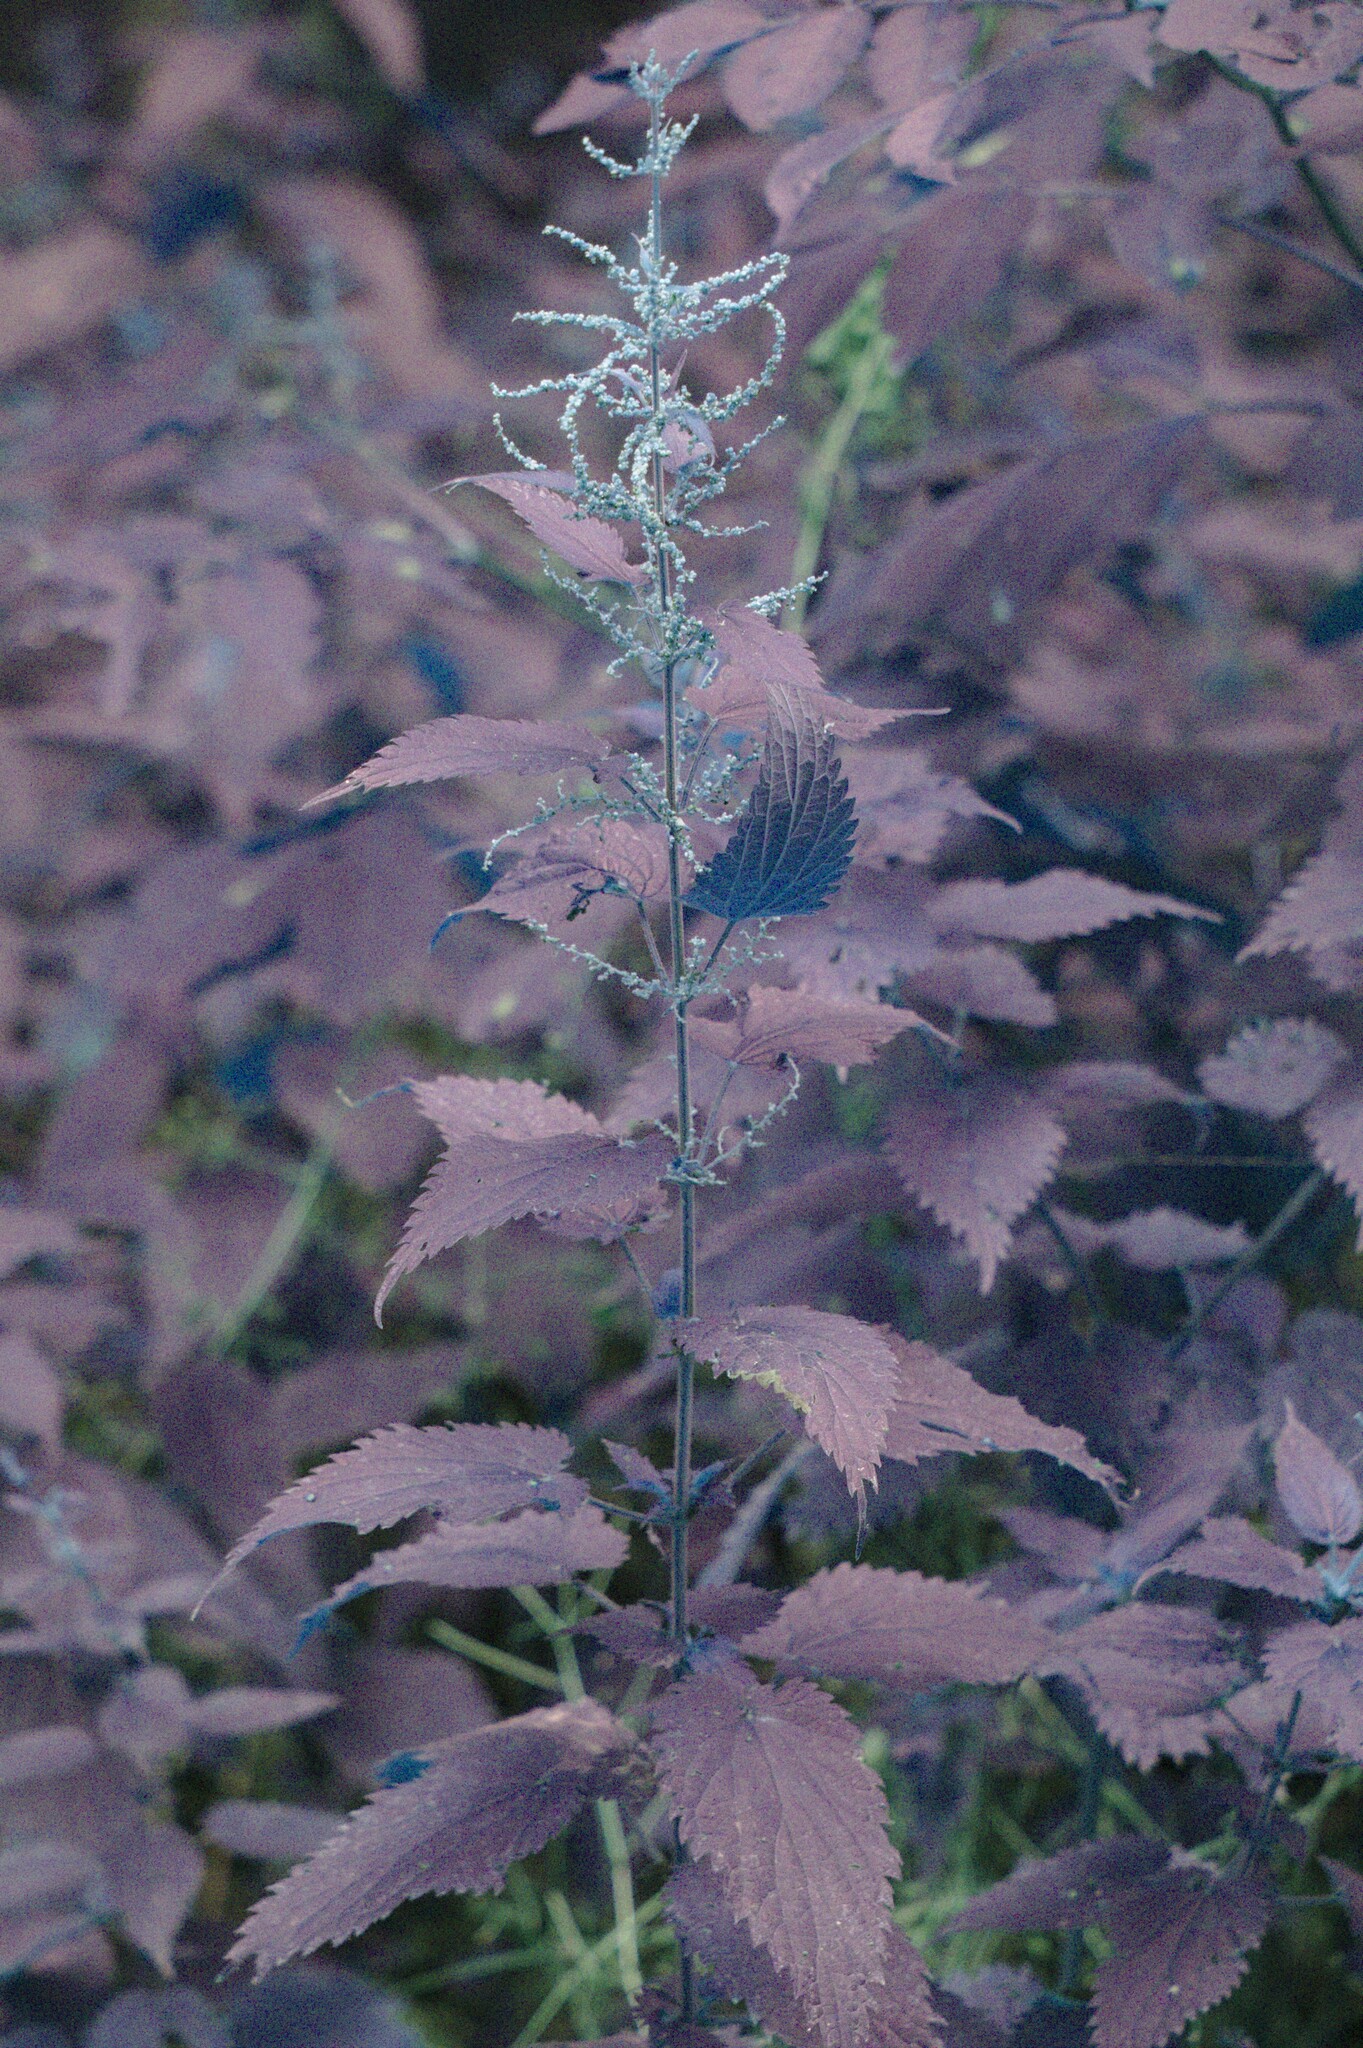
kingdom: Plantae
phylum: Tracheophyta
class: Magnoliopsida
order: Rosales
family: Urticaceae
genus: Urtica
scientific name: Urtica dioica
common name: Common nettle
